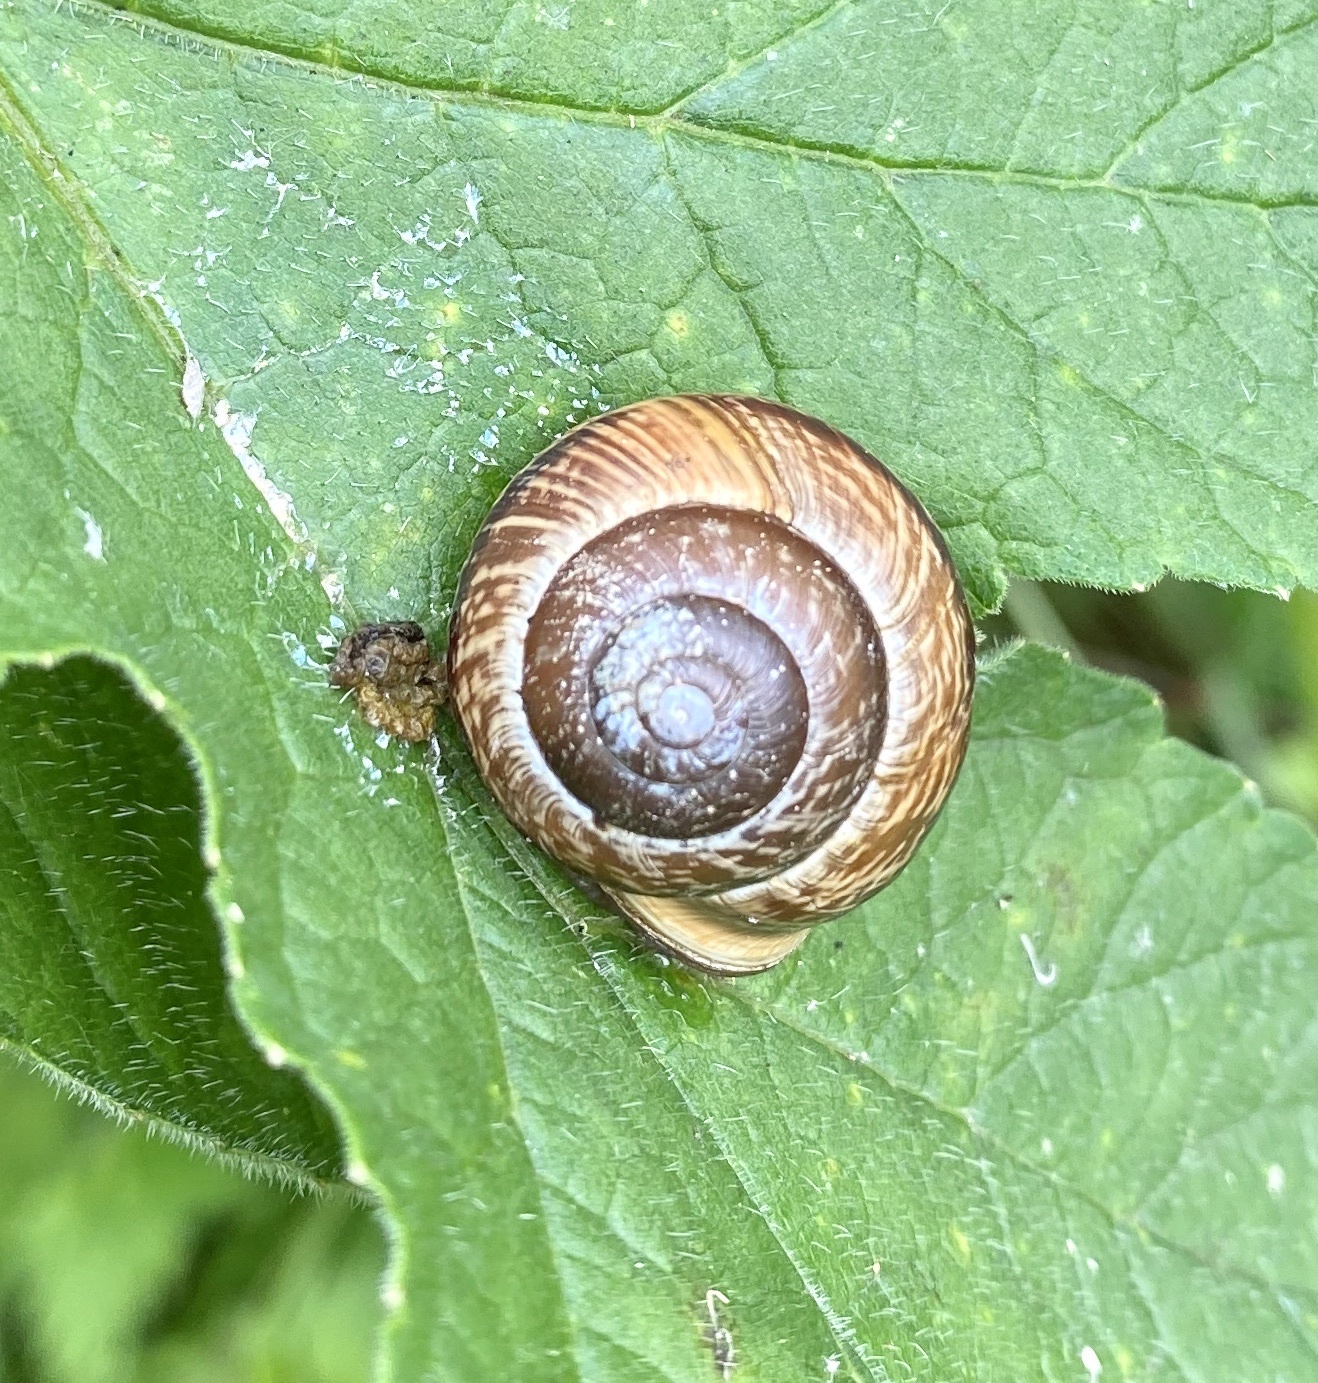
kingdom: Animalia
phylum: Mollusca
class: Gastropoda
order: Stylommatophora
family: Helicidae
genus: Arianta
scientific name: Arianta arbustorum
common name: Copse snail
